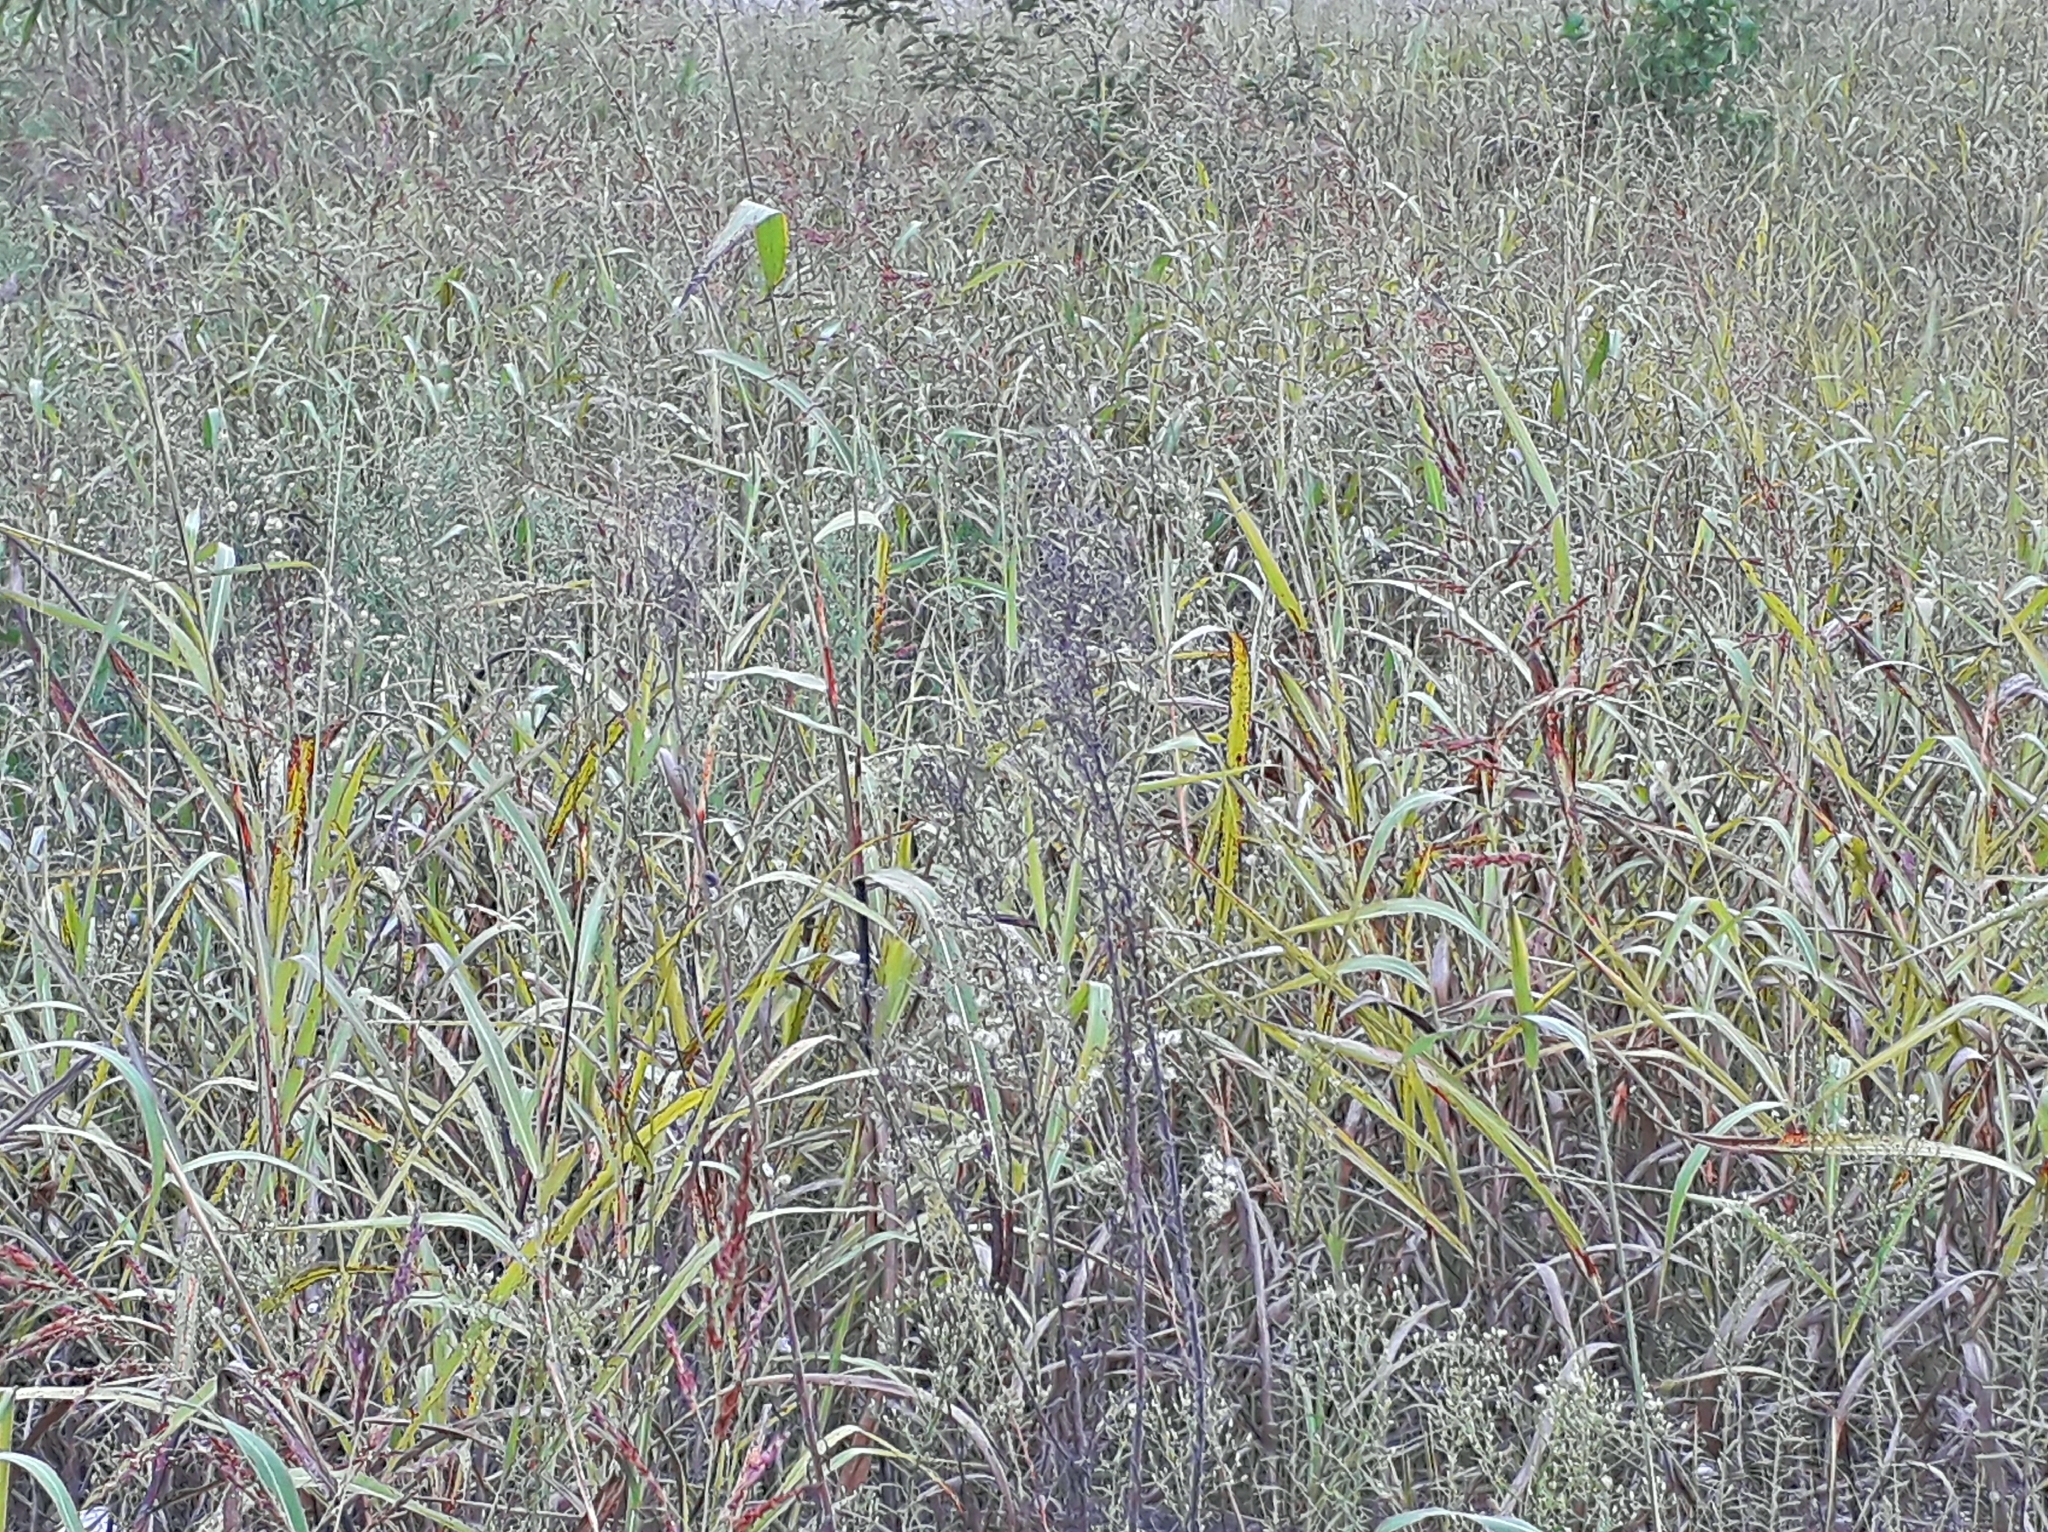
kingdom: Plantae
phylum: Tracheophyta
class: Liliopsida
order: Poales
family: Poaceae
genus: Sorghum
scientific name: Sorghum halepense
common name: Johnson-grass
